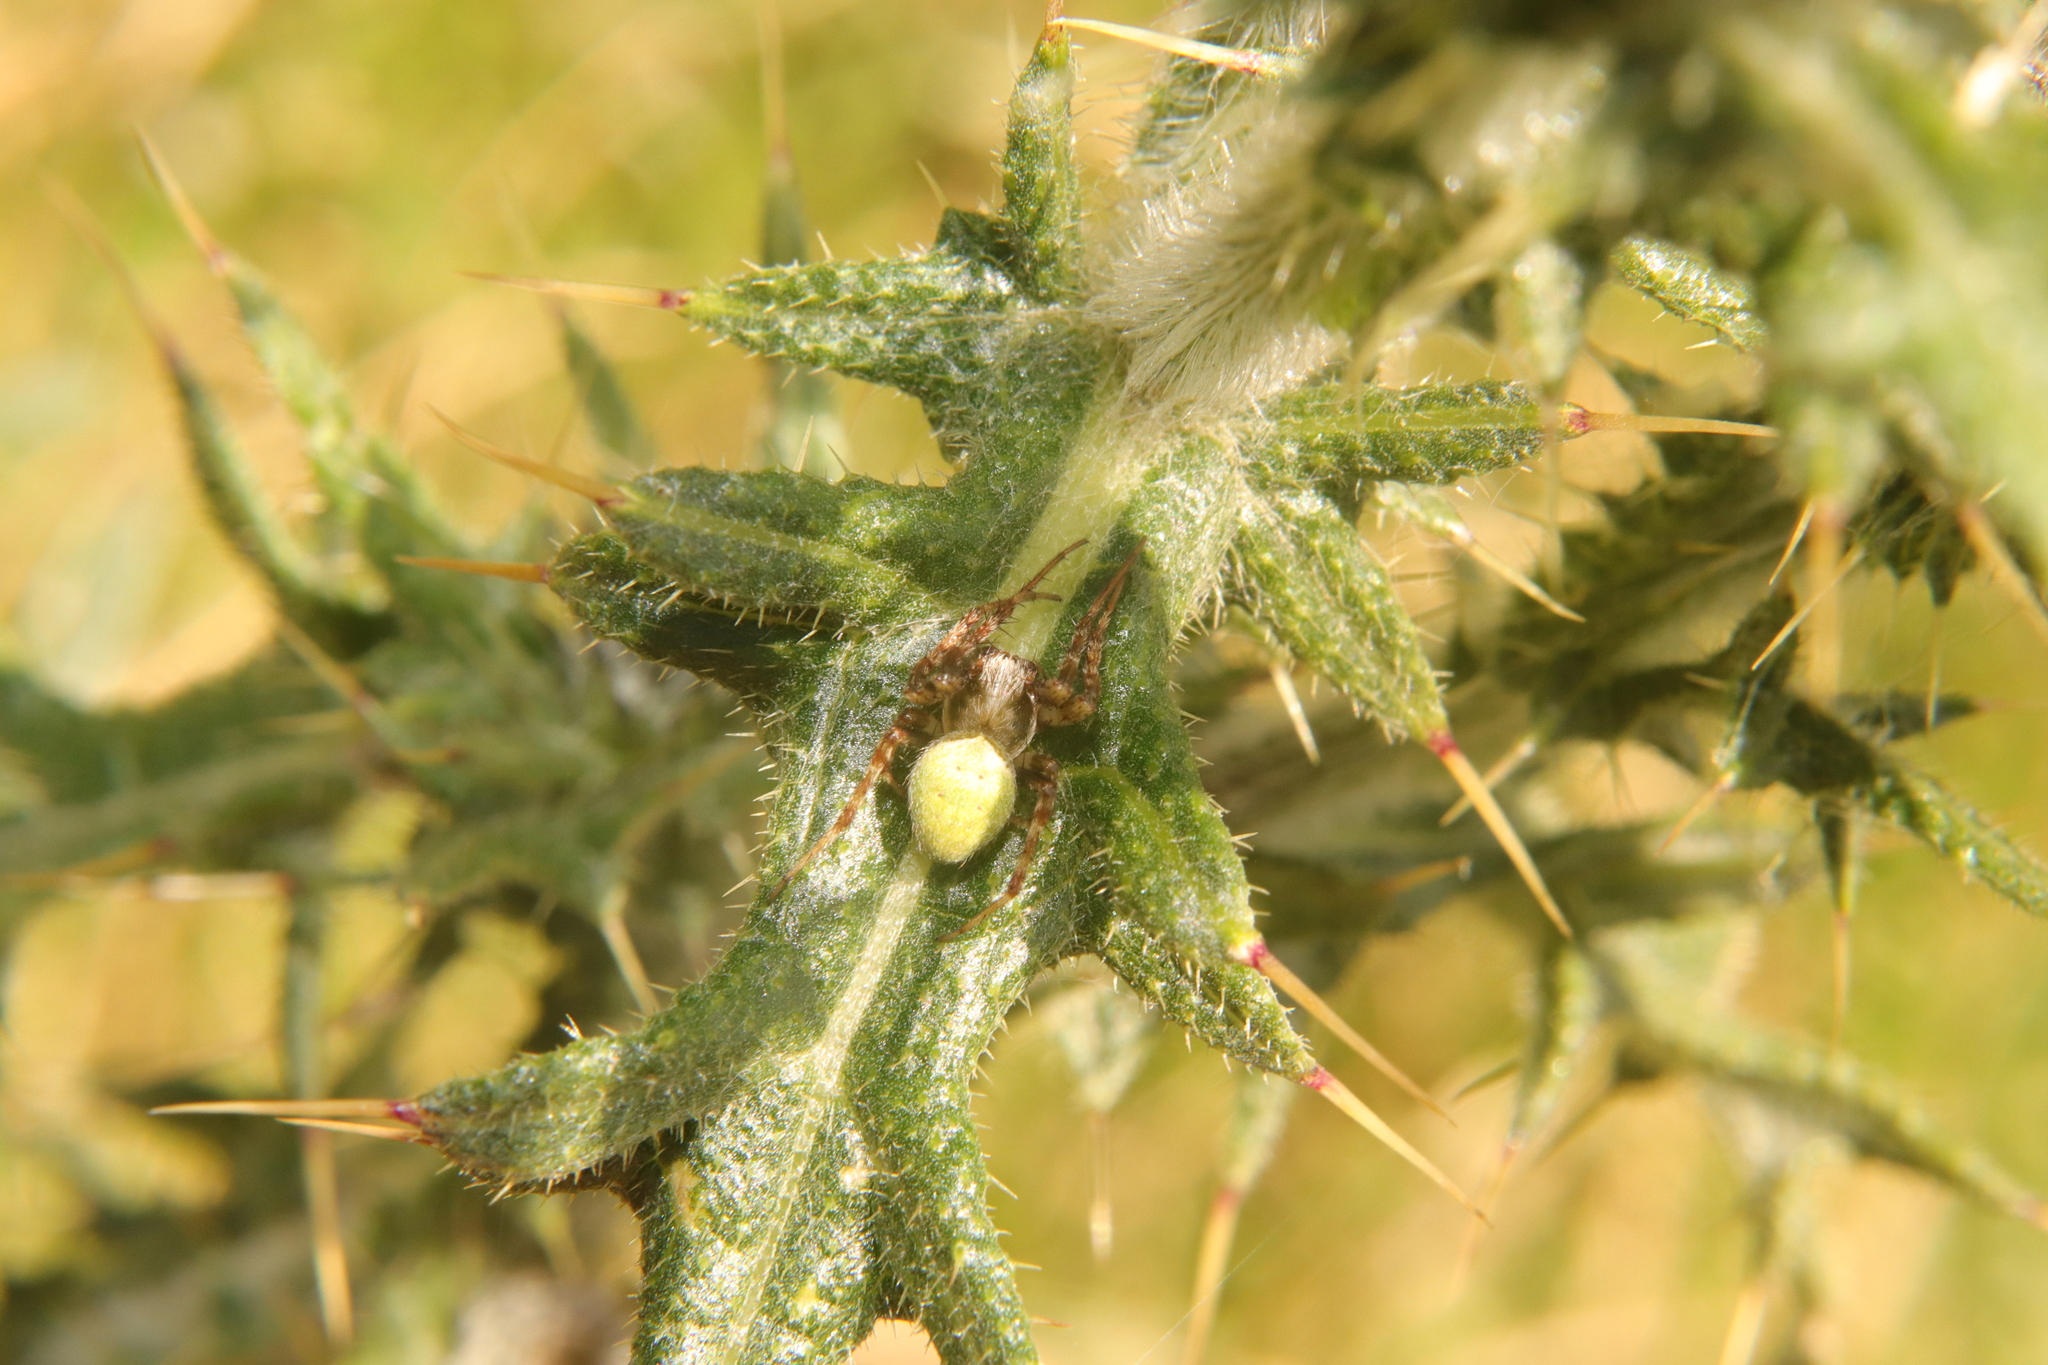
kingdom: Animalia
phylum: Arthropoda
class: Arachnida
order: Araneae
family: Araneidae
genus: Colaranea
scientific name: Colaranea viriditas
